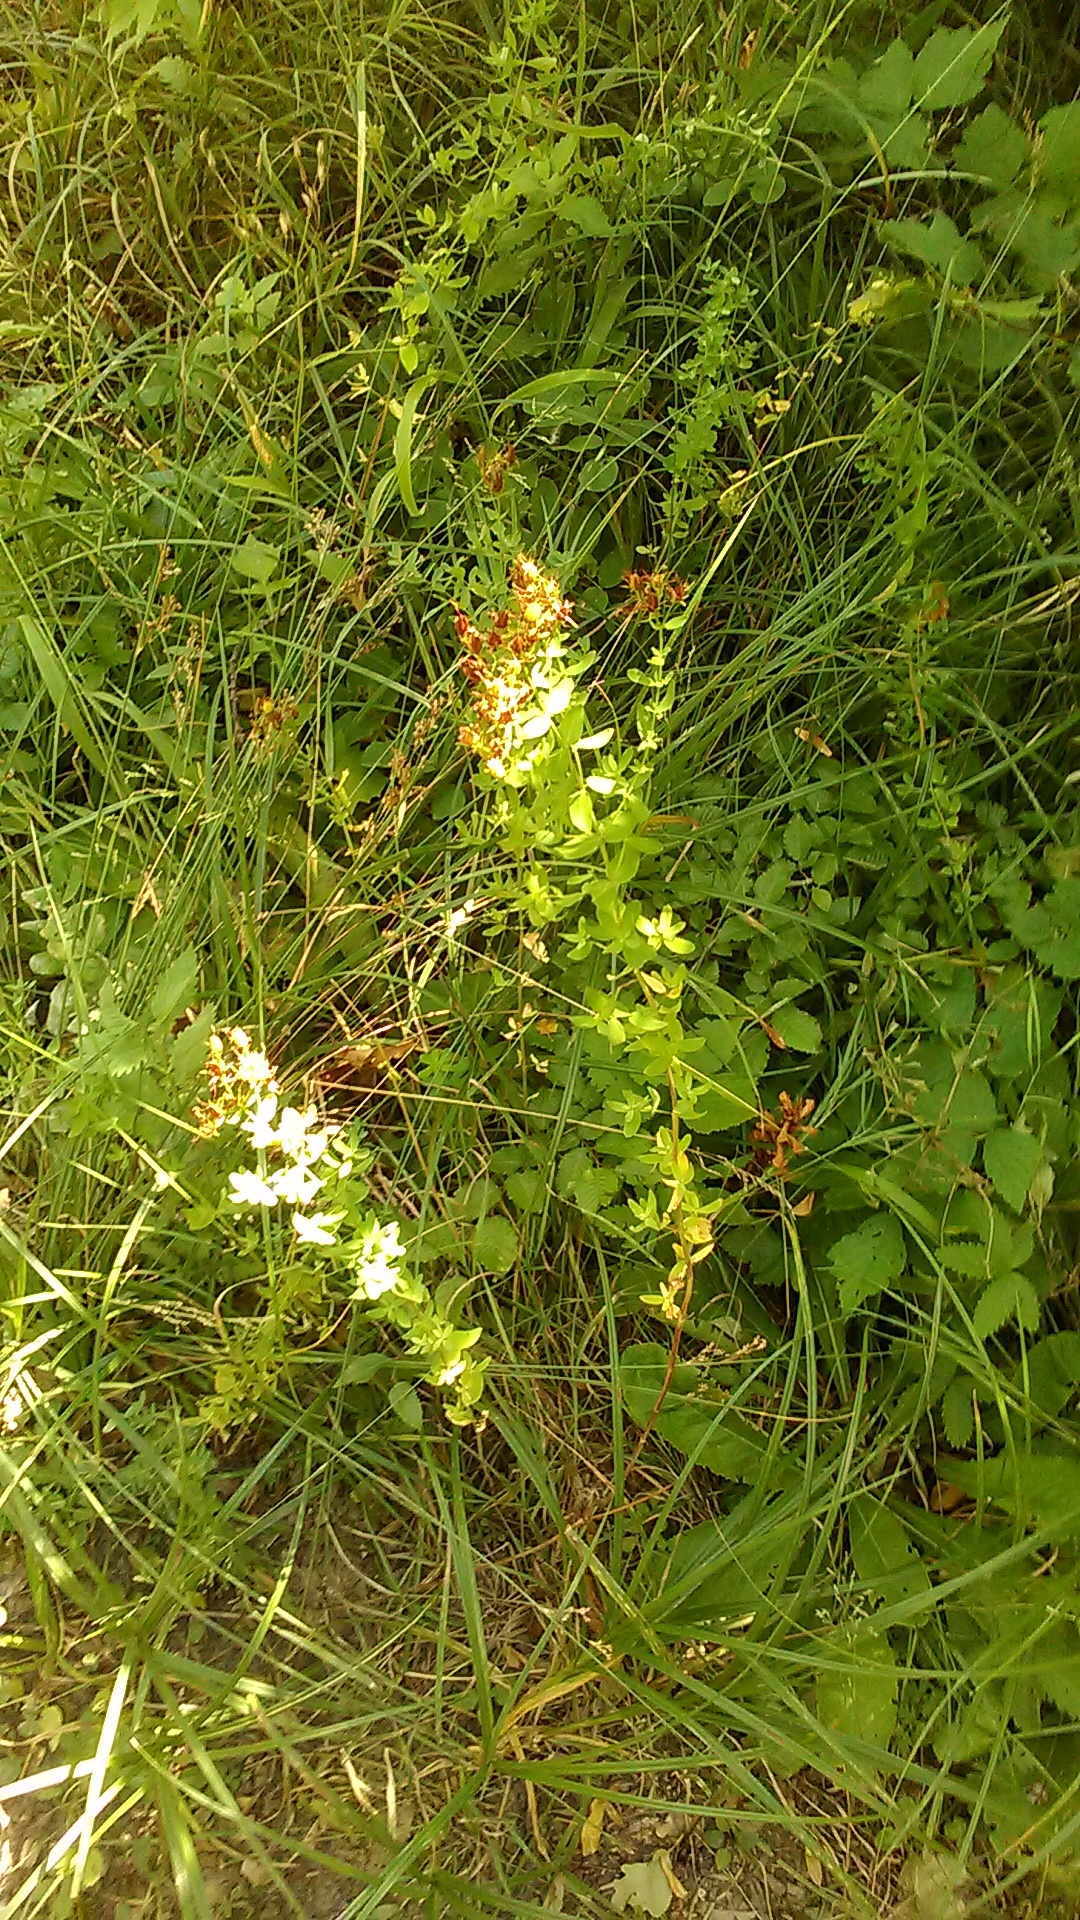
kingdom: Plantae
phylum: Tracheophyta
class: Magnoliopsida
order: Malpighiales
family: Hypericaceae
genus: Hypericum
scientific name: Hypericum perforatum
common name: Common st. johnswort
